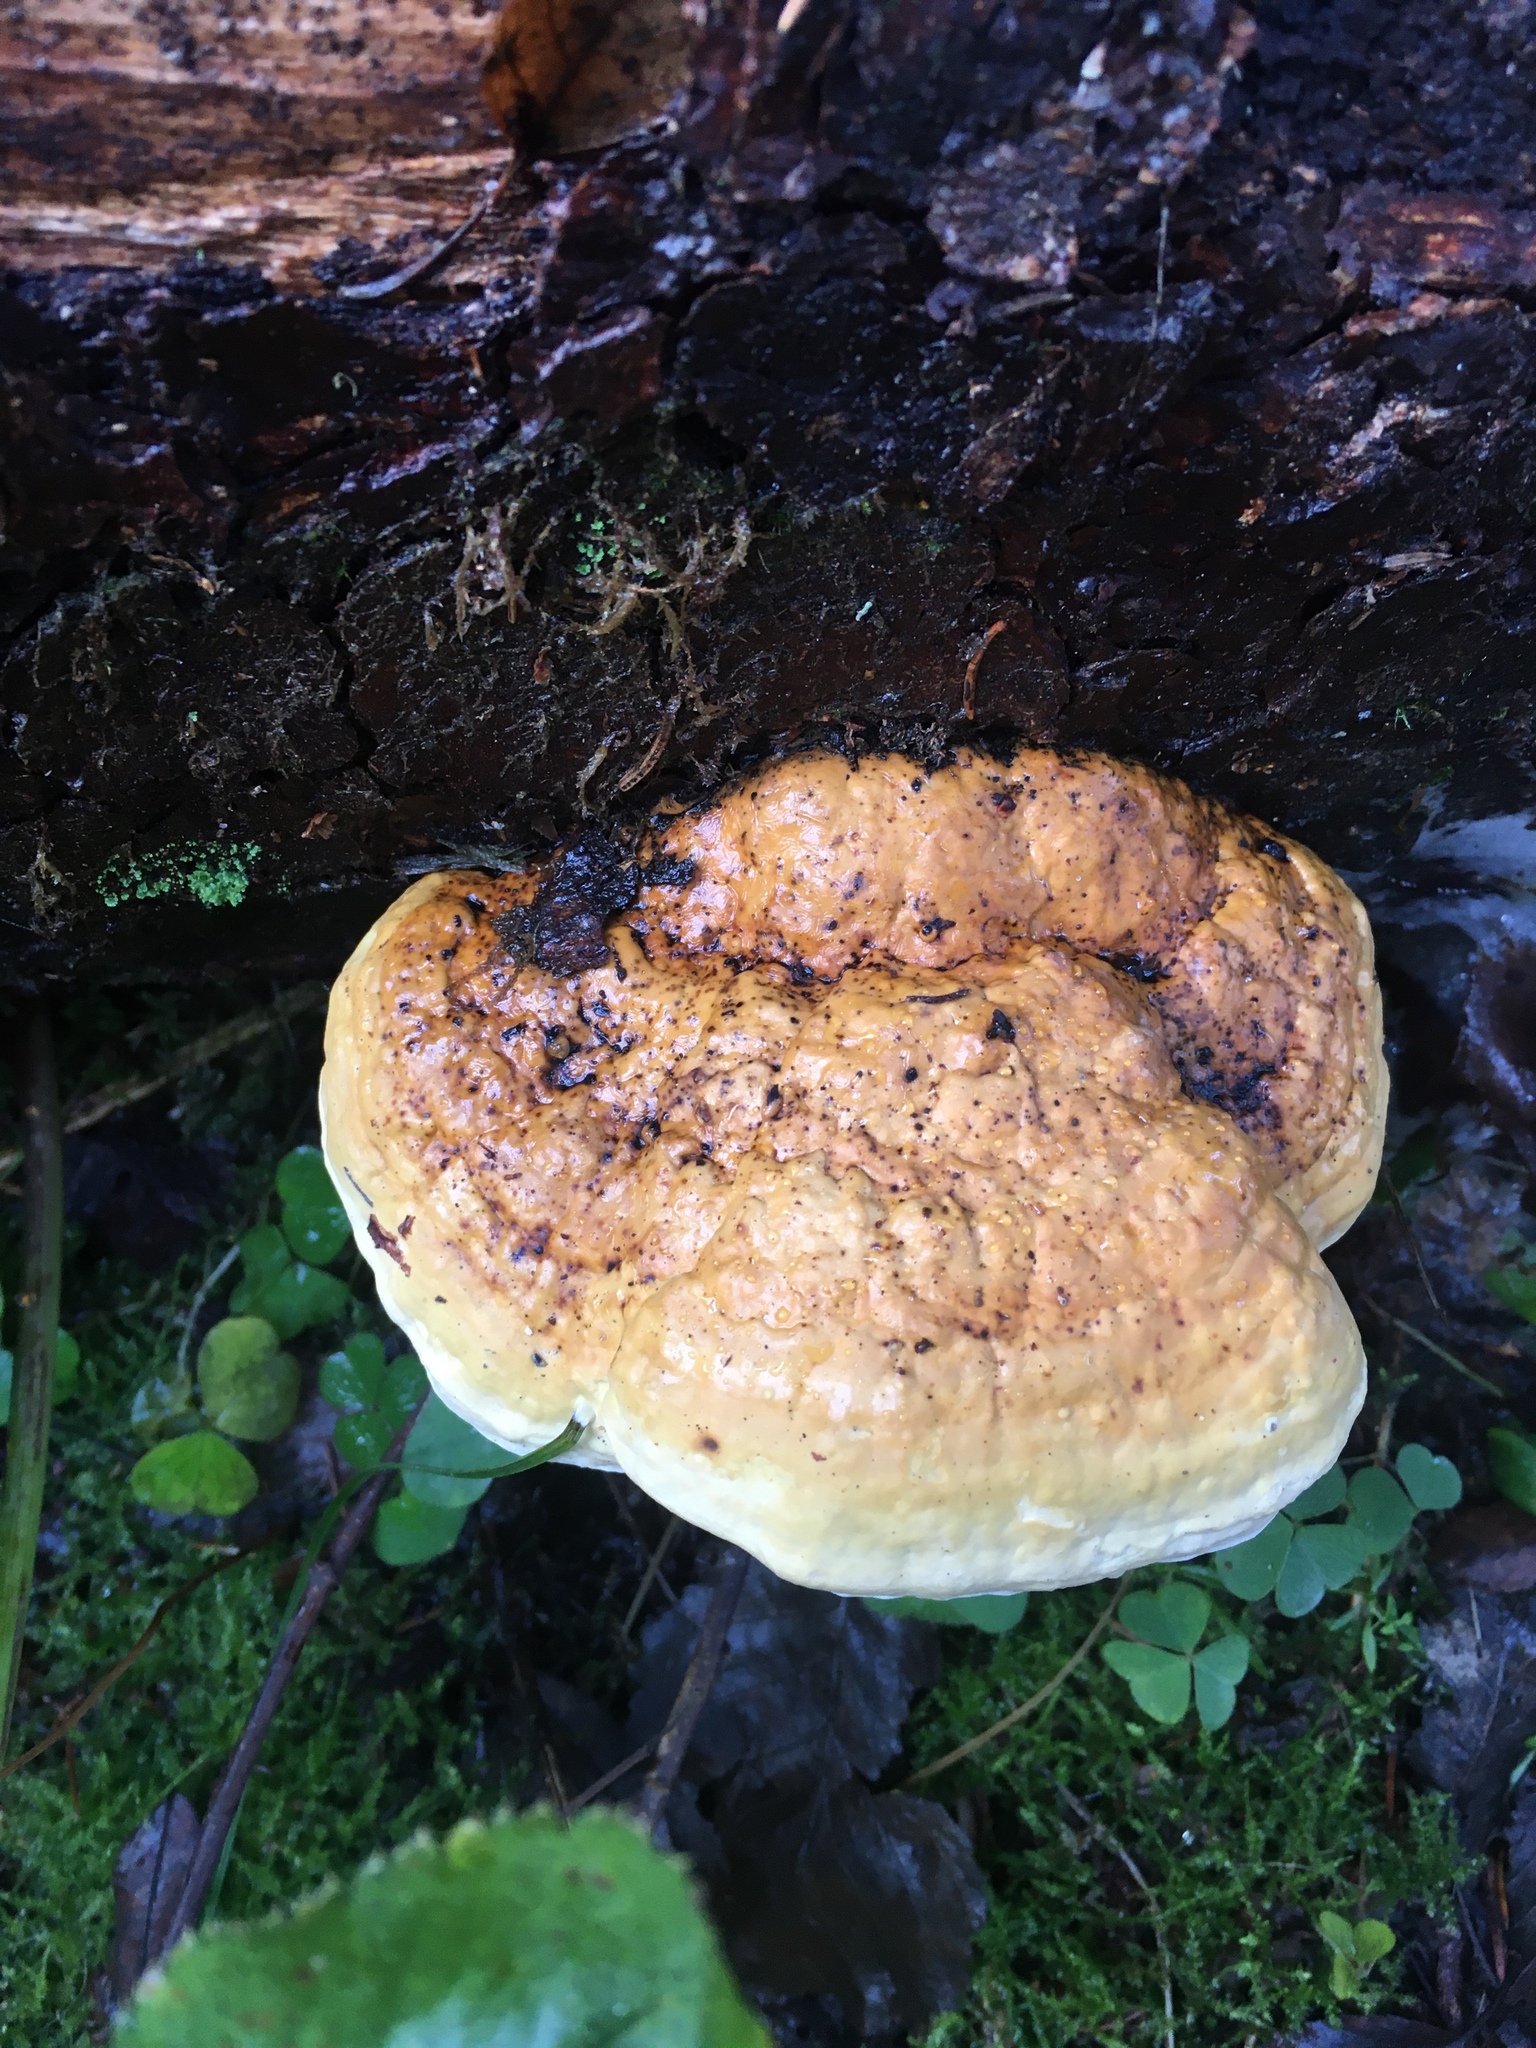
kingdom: Fungi
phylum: Basidiomycota
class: Agaricomycetes
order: Polyporales
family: Fomitopsidaceae
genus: Fomitopsis
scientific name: Fomitopsis pinicola
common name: Red-belted bracket
